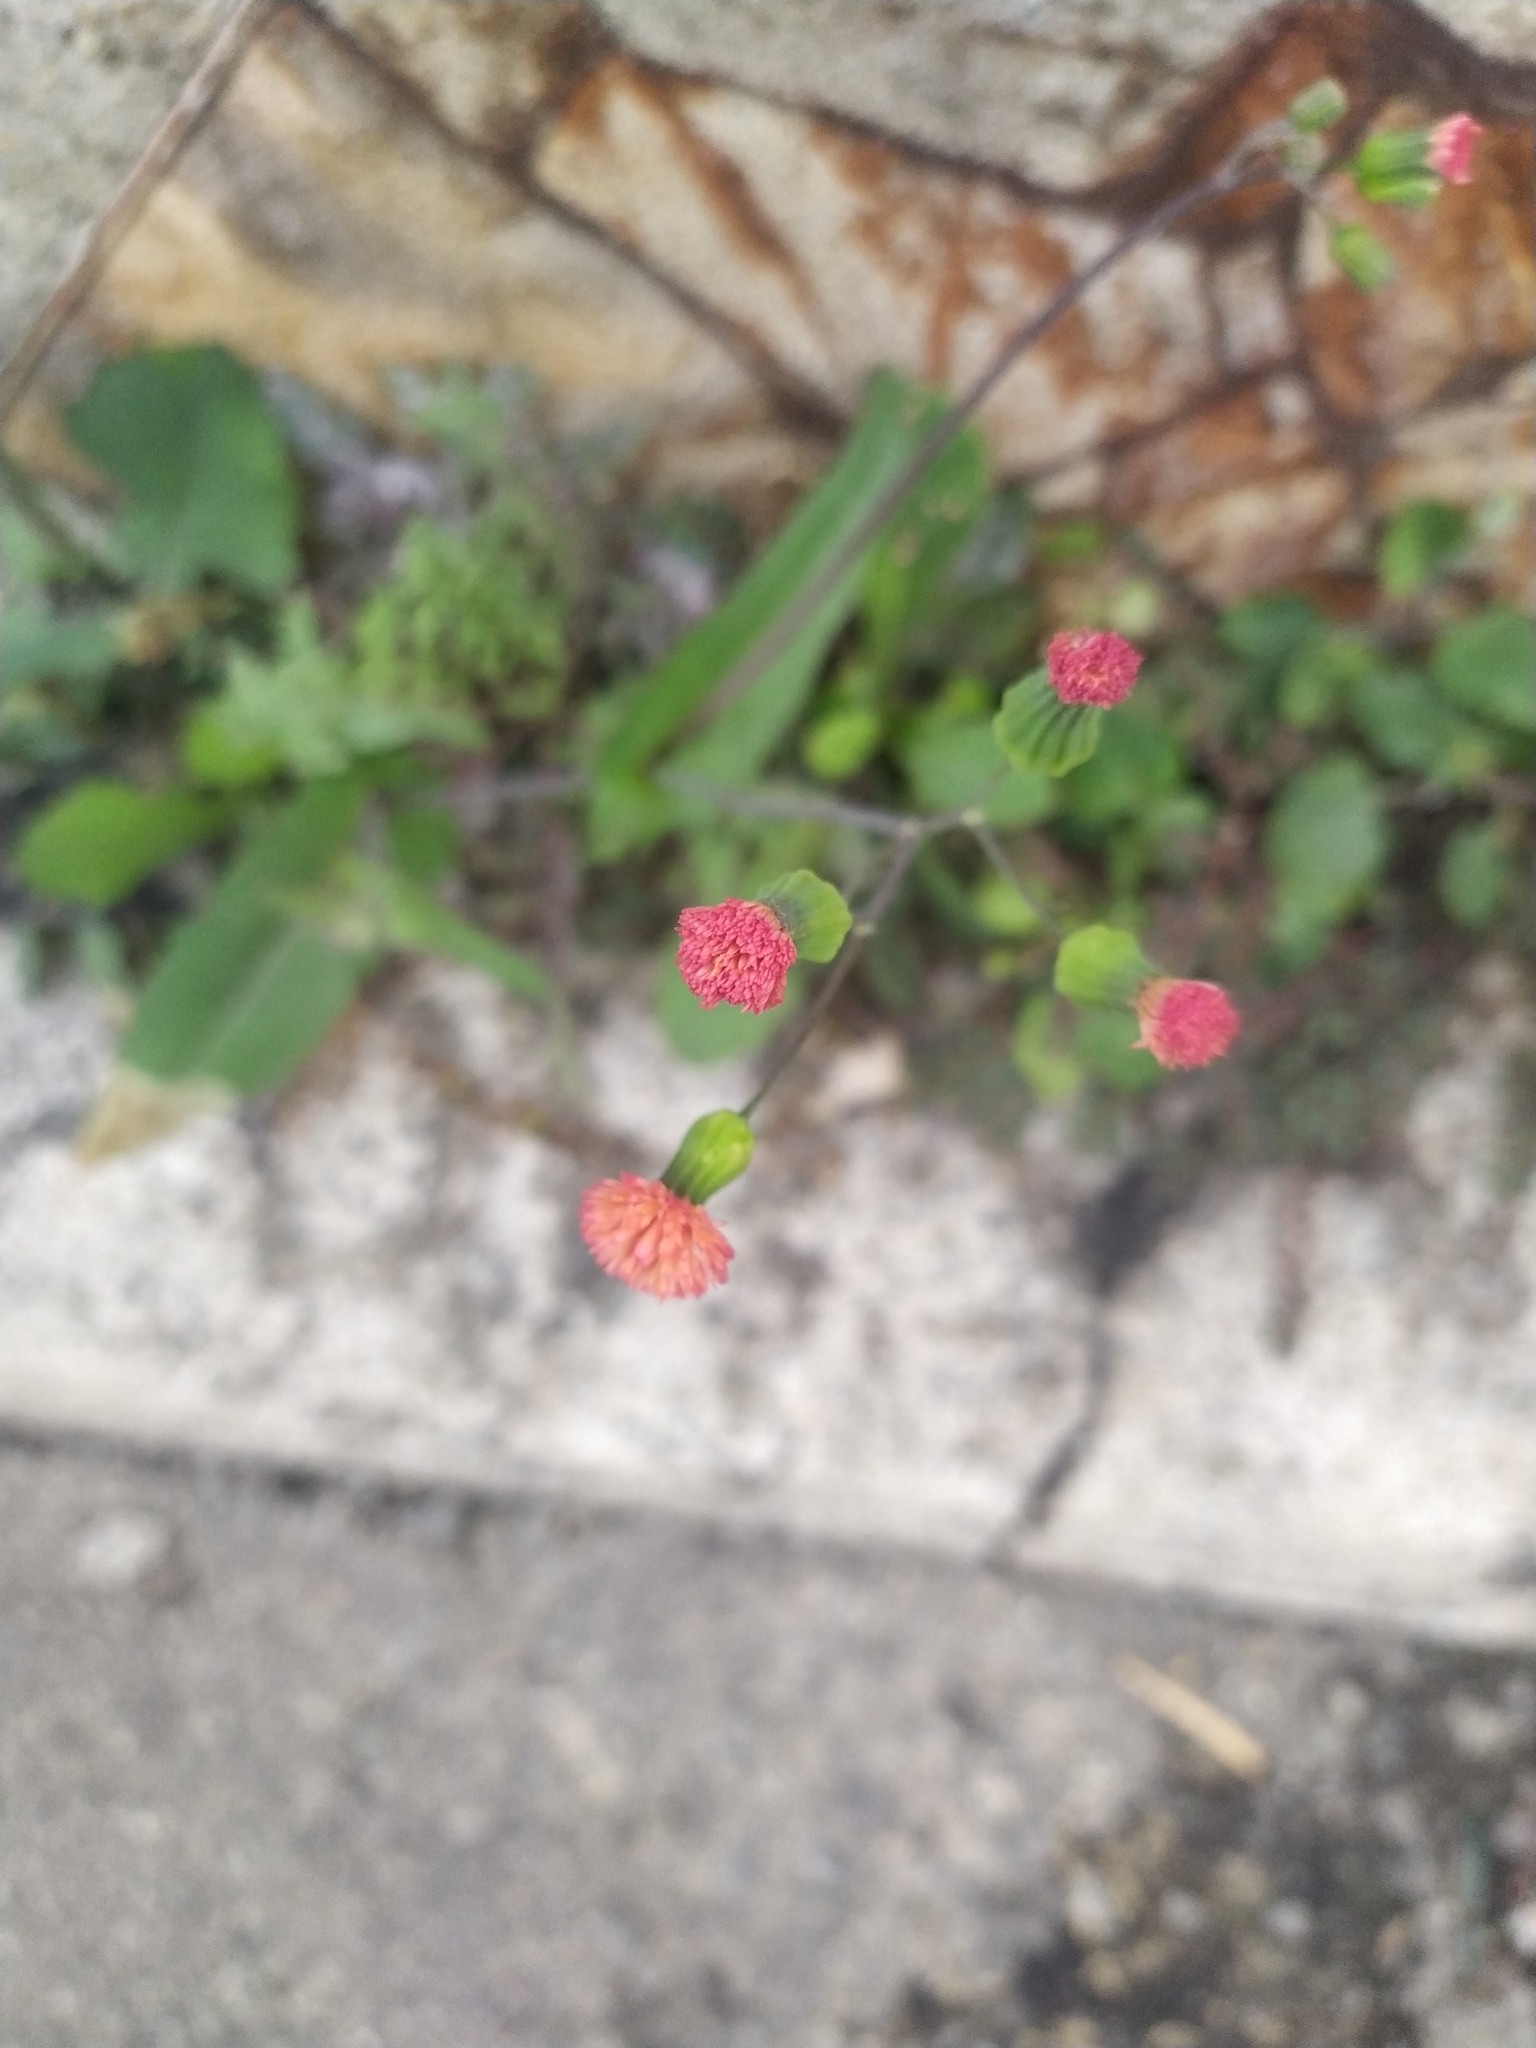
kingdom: Plantae
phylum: Tracheophyta
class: Magnoliopsida
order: Asterales
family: Asteraceae
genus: Emilia
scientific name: Emilia fosbergii
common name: Florida tasselflower
